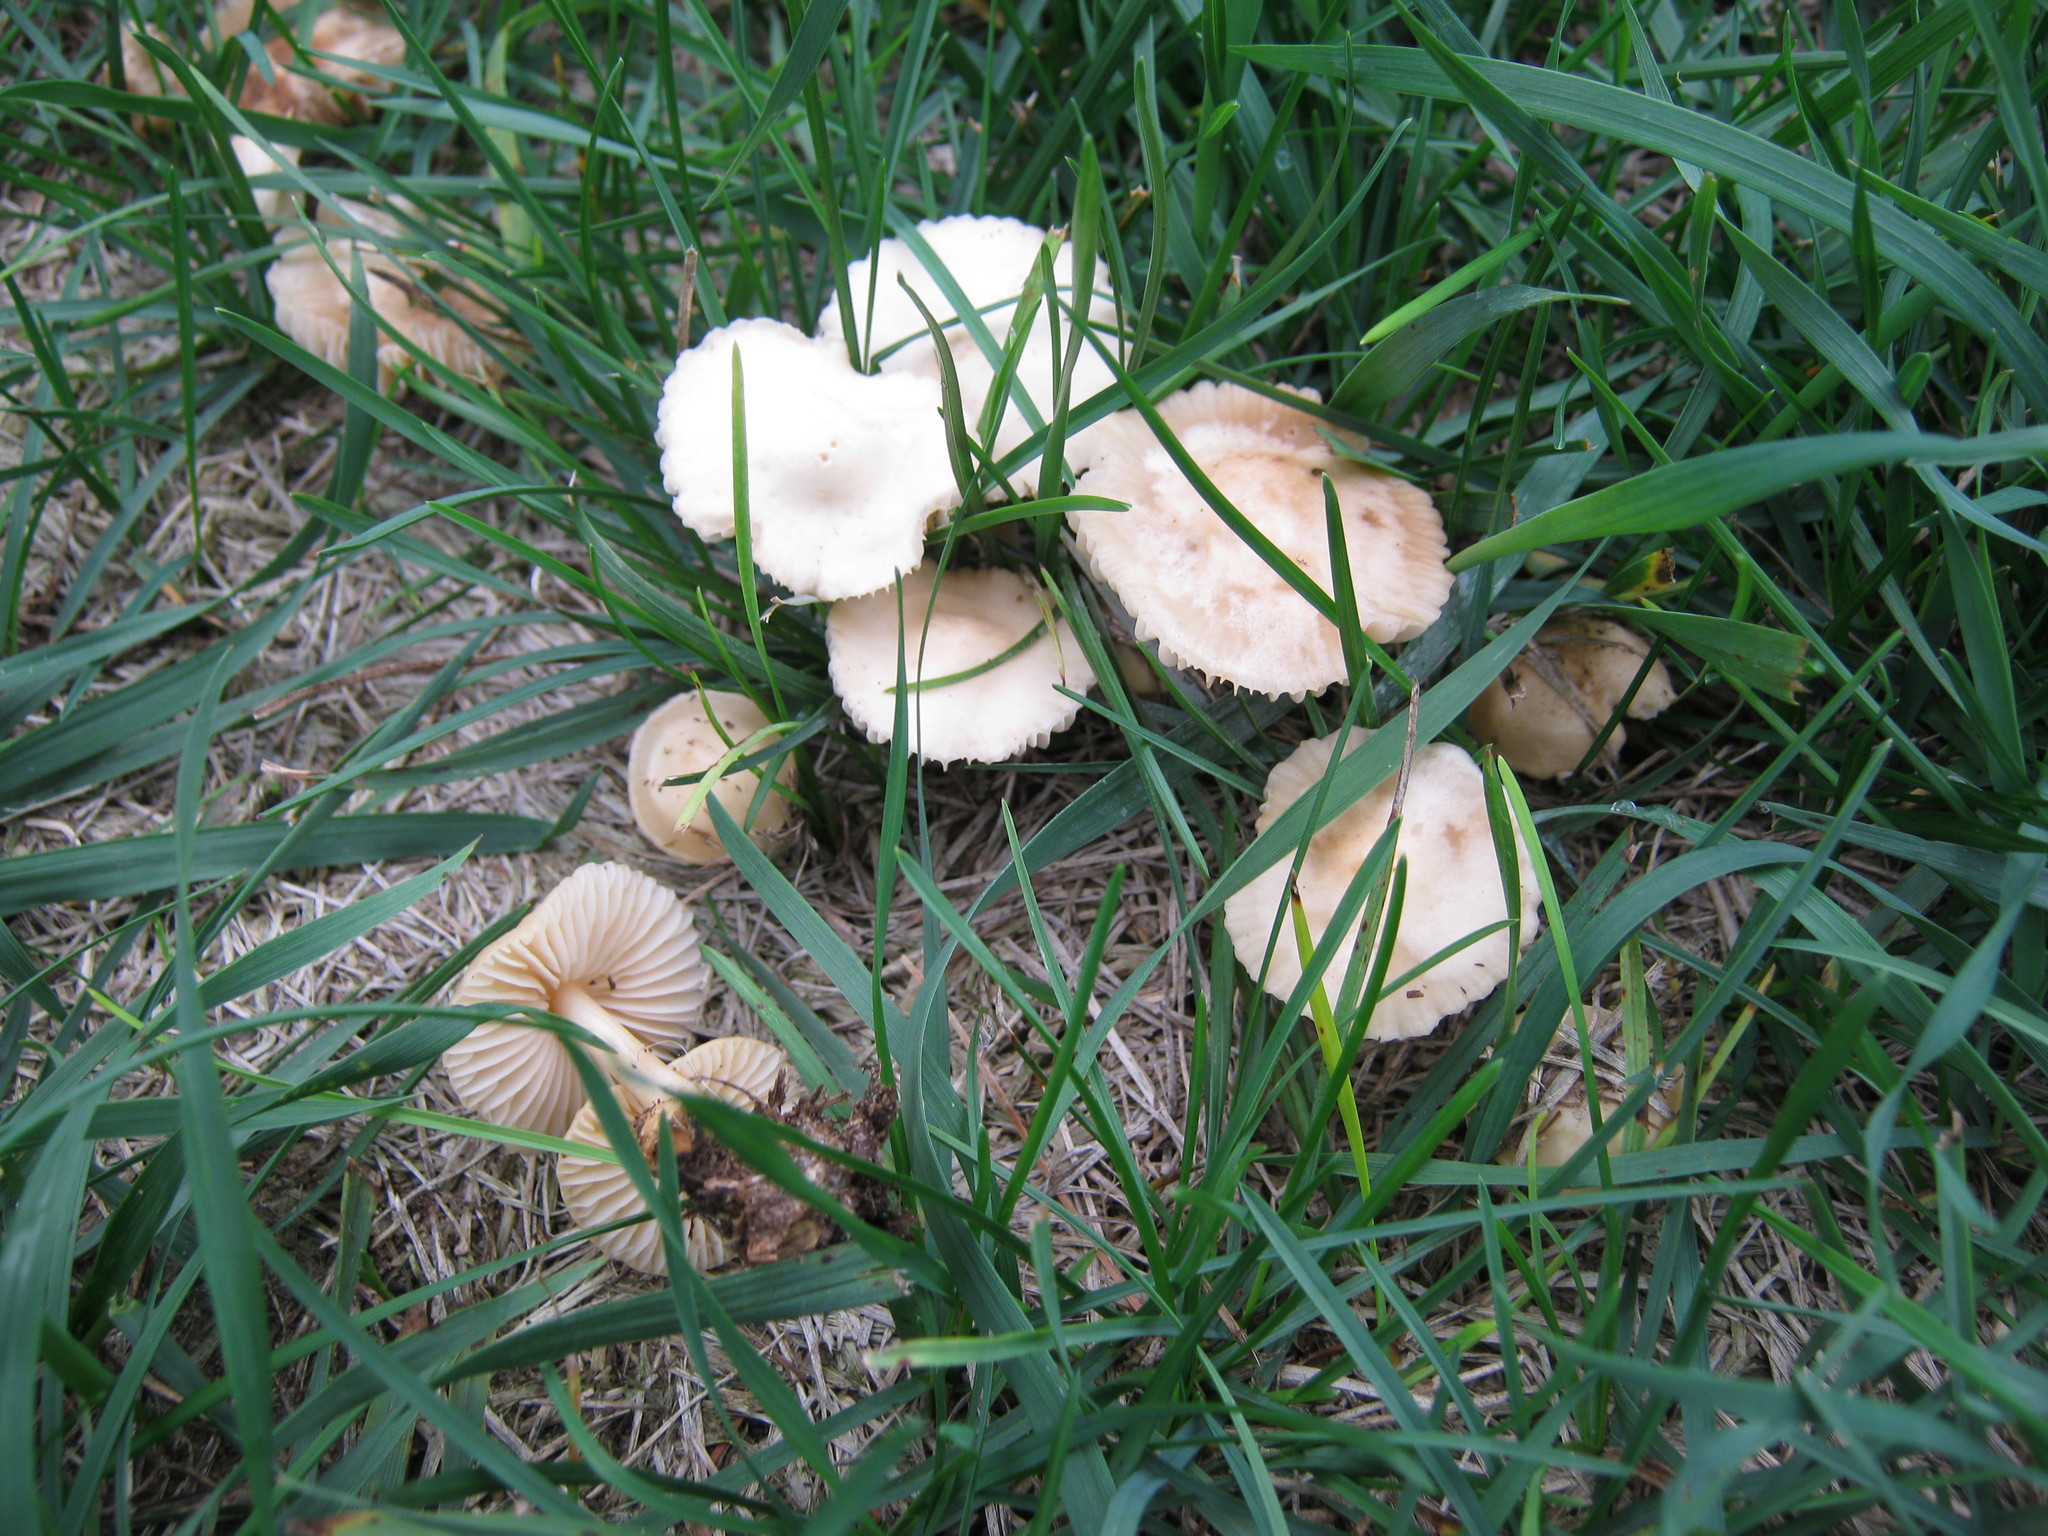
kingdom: Fungi
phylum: Basidiomycota
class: Agaricomycetes
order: Agaricales
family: Marasmiaceae
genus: Marasmius
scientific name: Marasmius oreades
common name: Fairy ring champignon
